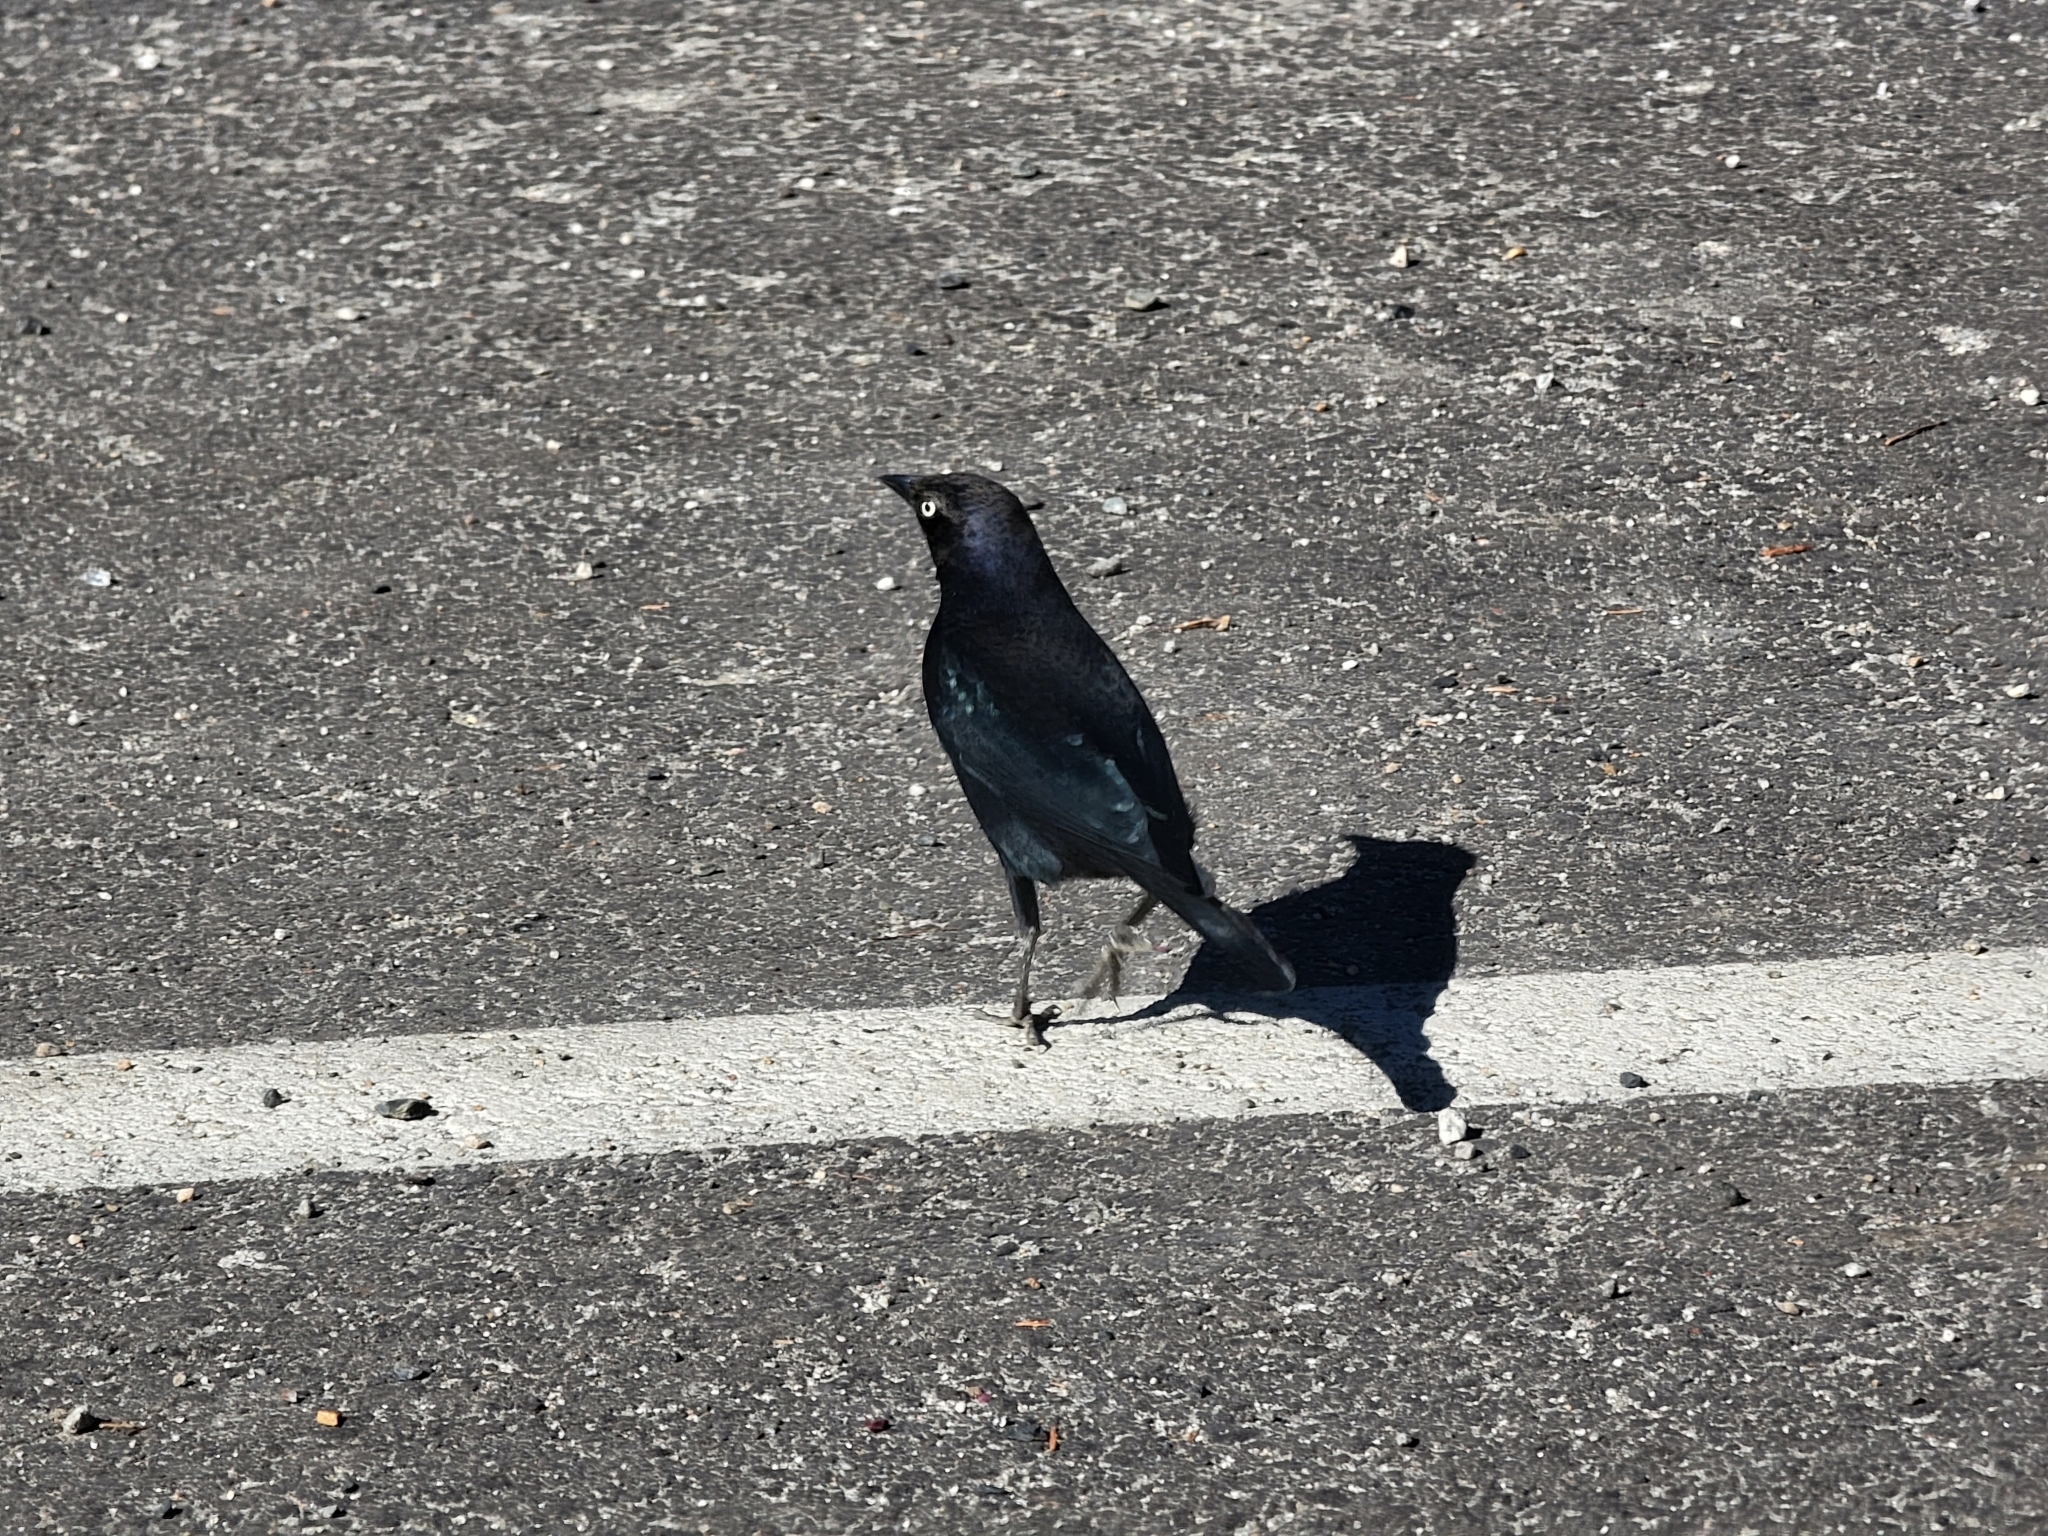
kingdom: Animalia
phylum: Chordata
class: Aves
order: Passeriformes
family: Icteridae
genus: Euphagus
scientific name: Euphagus cyanocephalus
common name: Brewer's blackbird
